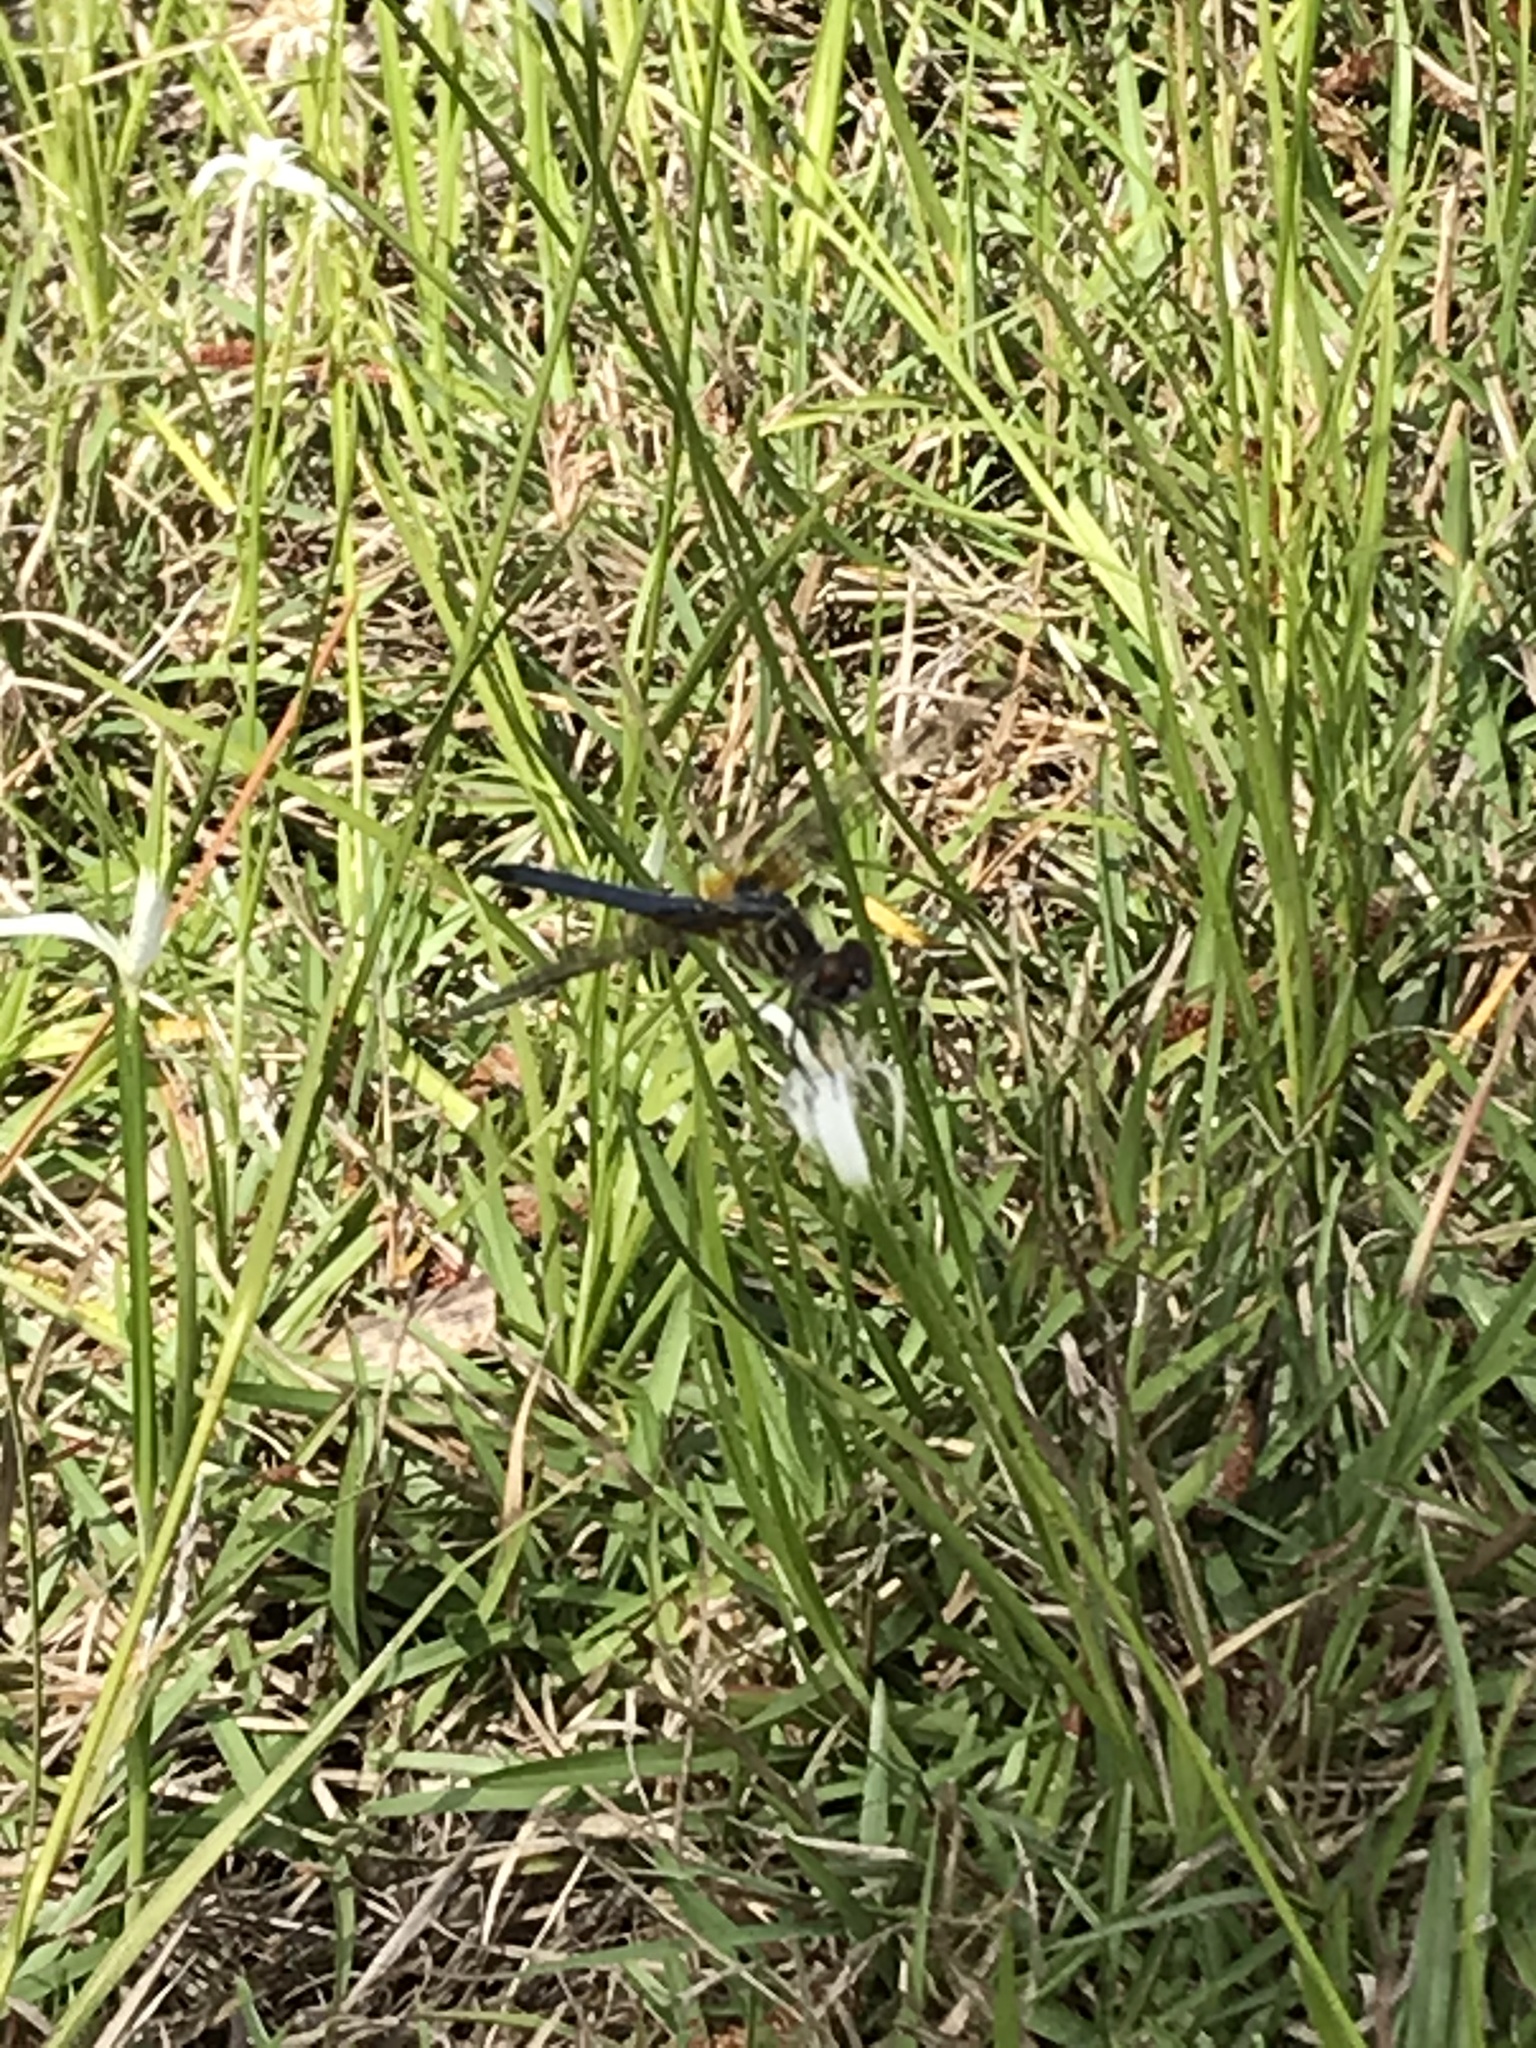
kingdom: Animalia
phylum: Arthropoda
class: Insecta
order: Odonata
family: Libellulidae
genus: Pachydiplax
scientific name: Pachydiplax longipennis
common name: Blue dasher
